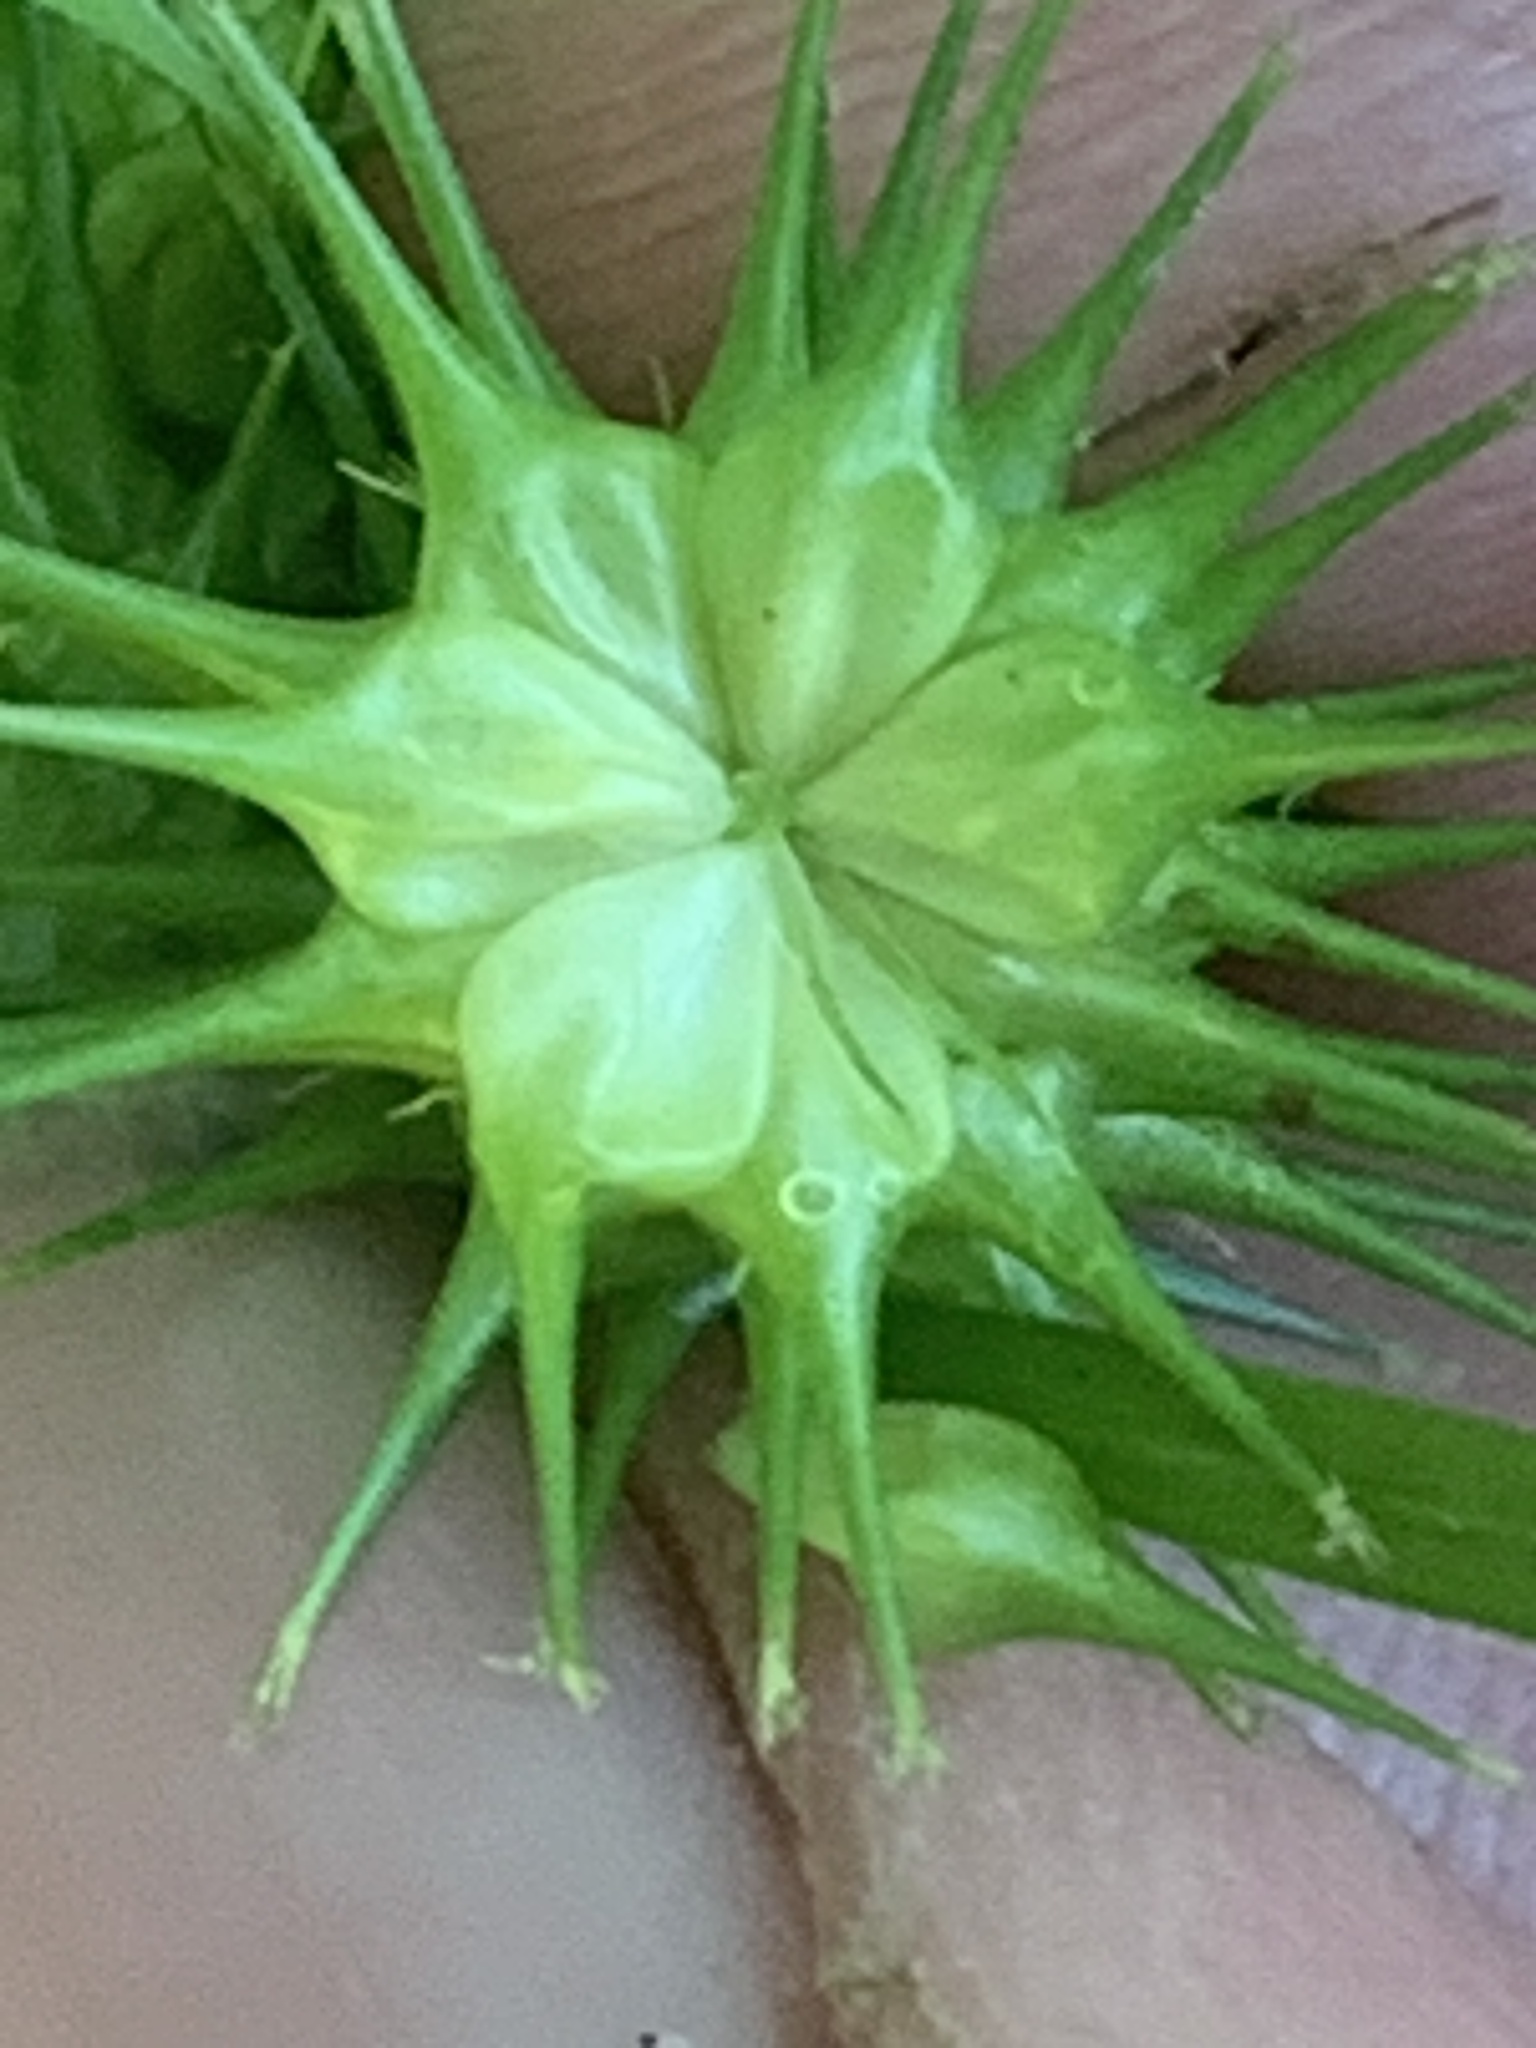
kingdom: Plantae
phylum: Tracheophyta
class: Liliopsida
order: Poales
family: Cyperaceae
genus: Carex
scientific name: Carex lurida
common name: Sallow sedge
